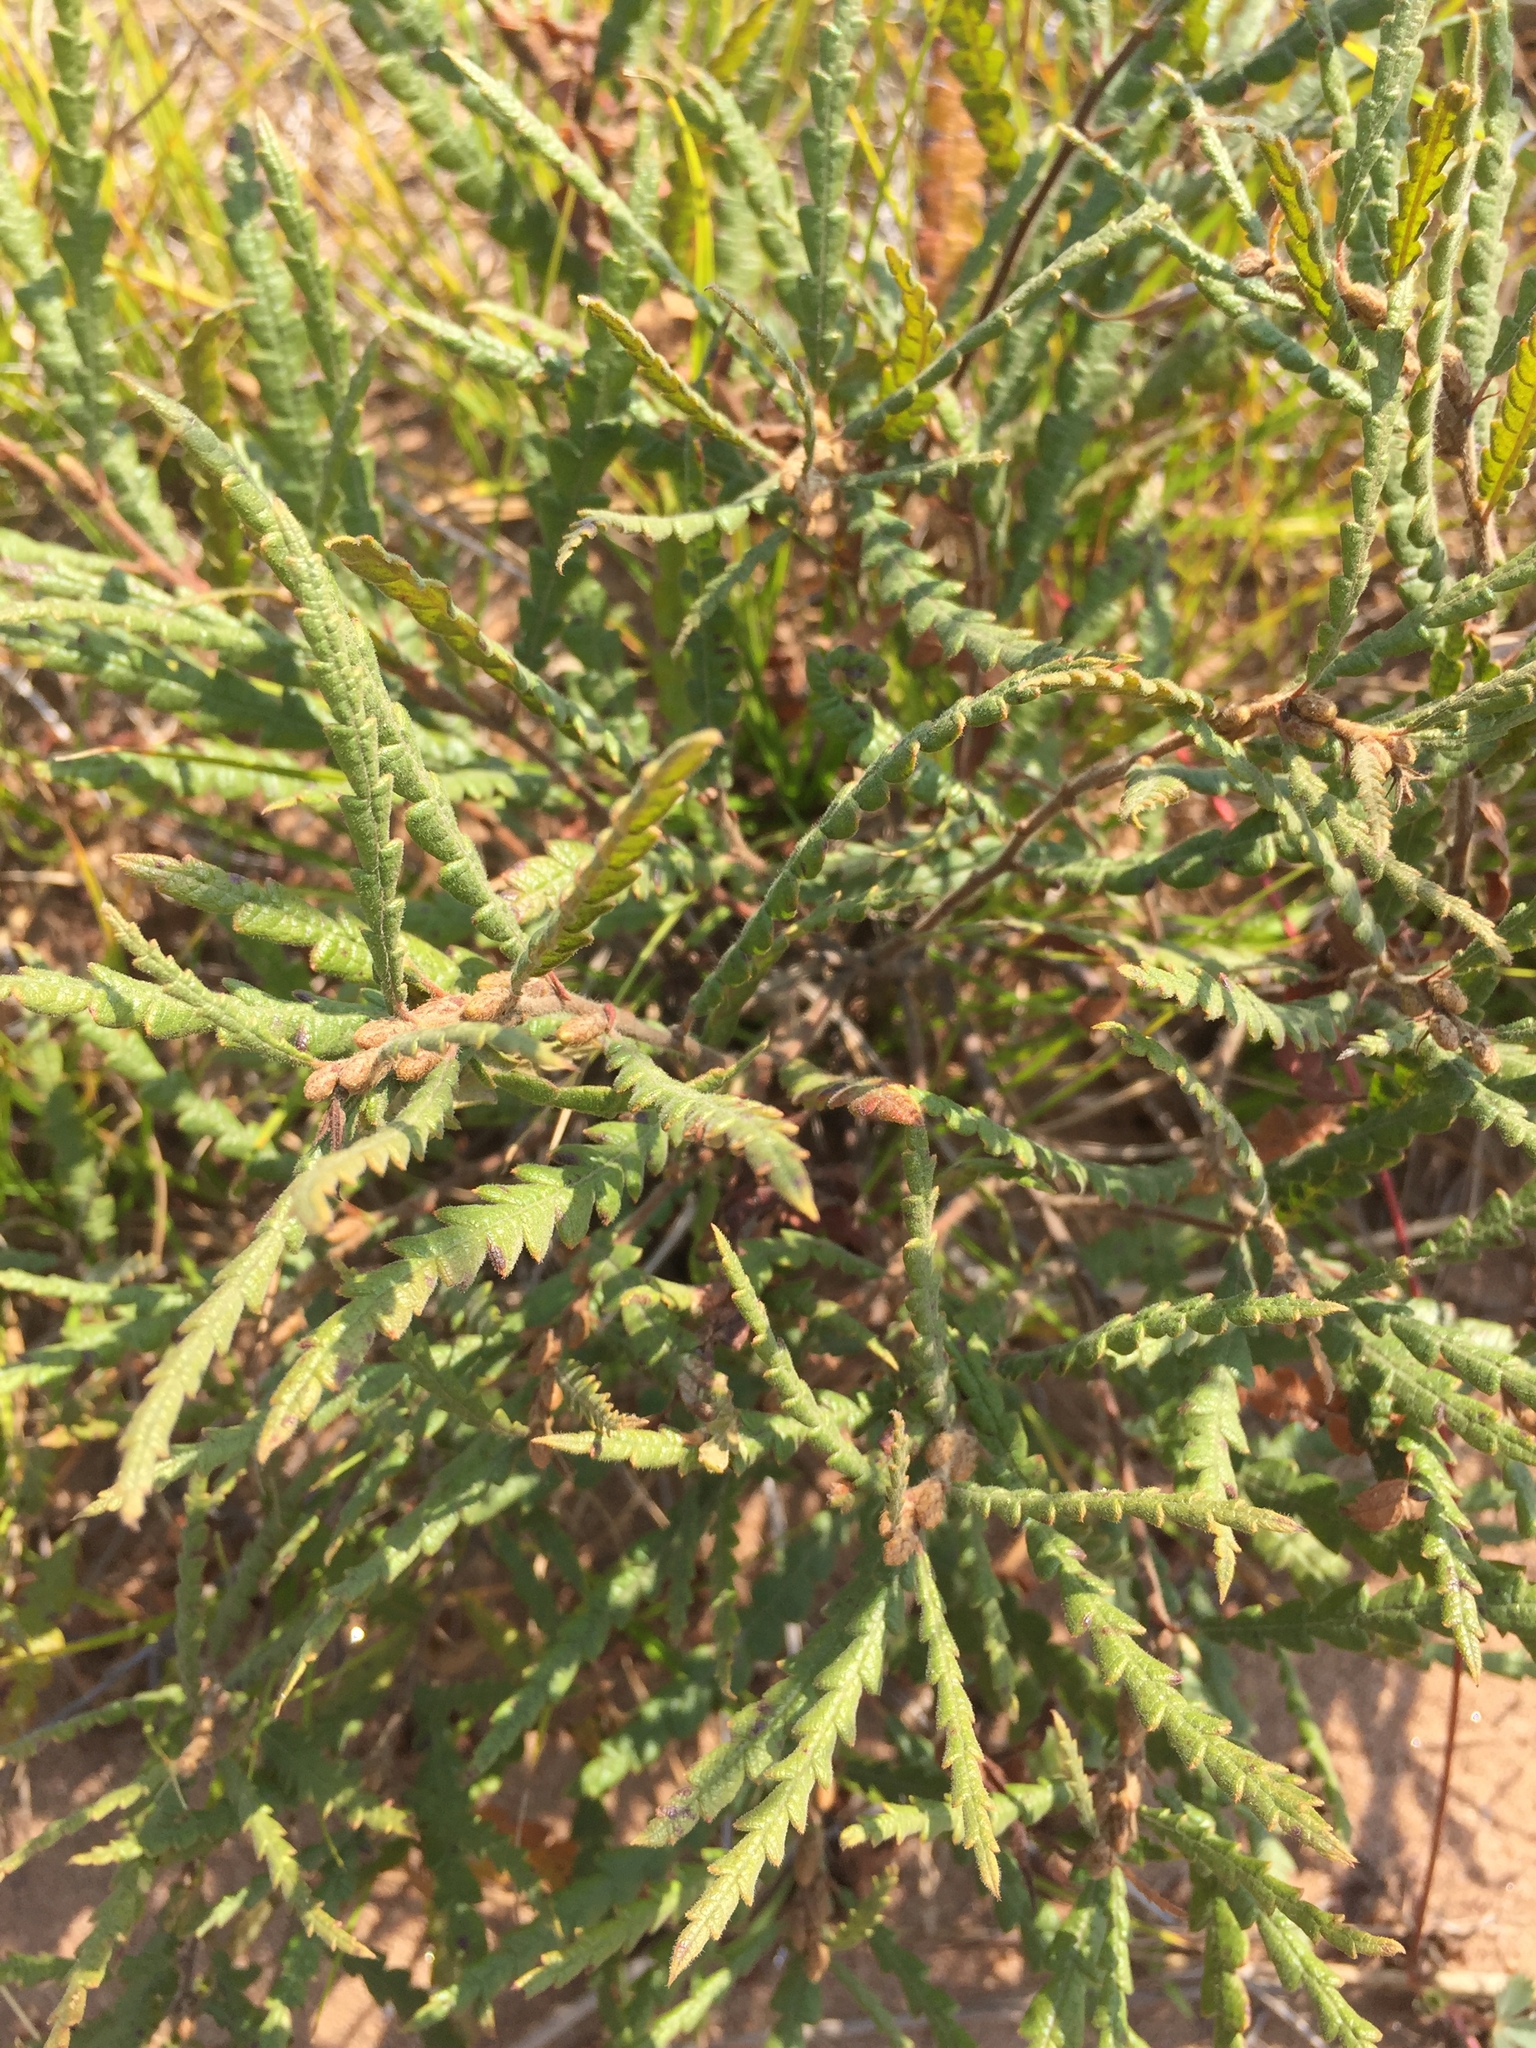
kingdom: Plantae
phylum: Tracheophyta
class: Magnoliopsida
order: Fagales
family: Myricaceae
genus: Comptonia
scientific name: Comptonia peregrina
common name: Sweet-fern
